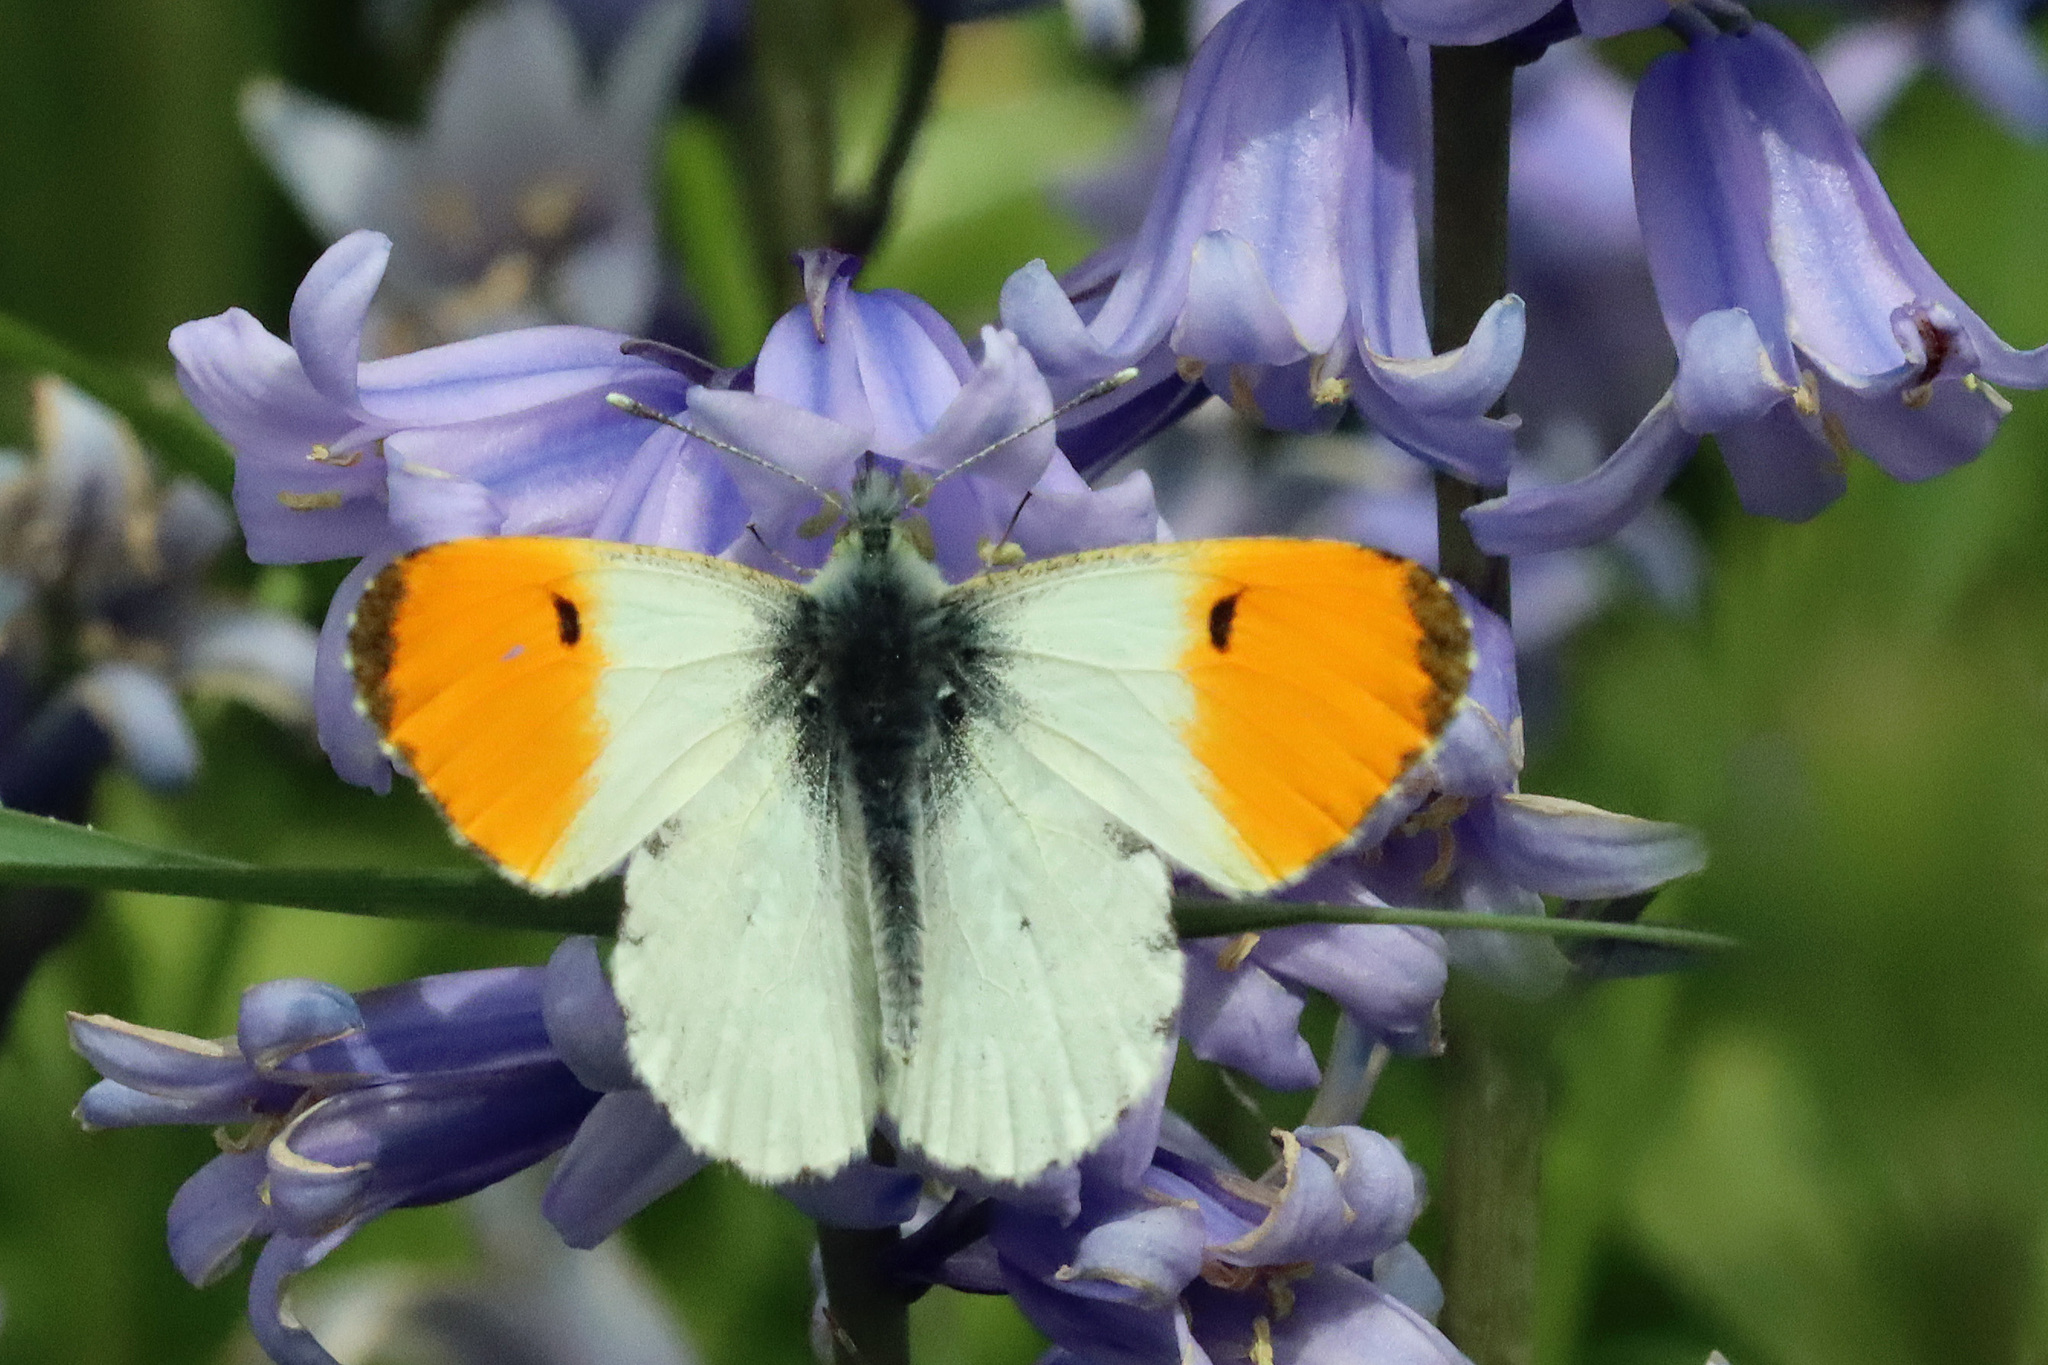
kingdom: Animalia
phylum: Arthropoda
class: Insecta
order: Lepidoptera
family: Pieridae
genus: Anthocharis
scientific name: Anthocharis cardamines
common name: Orange-tip
